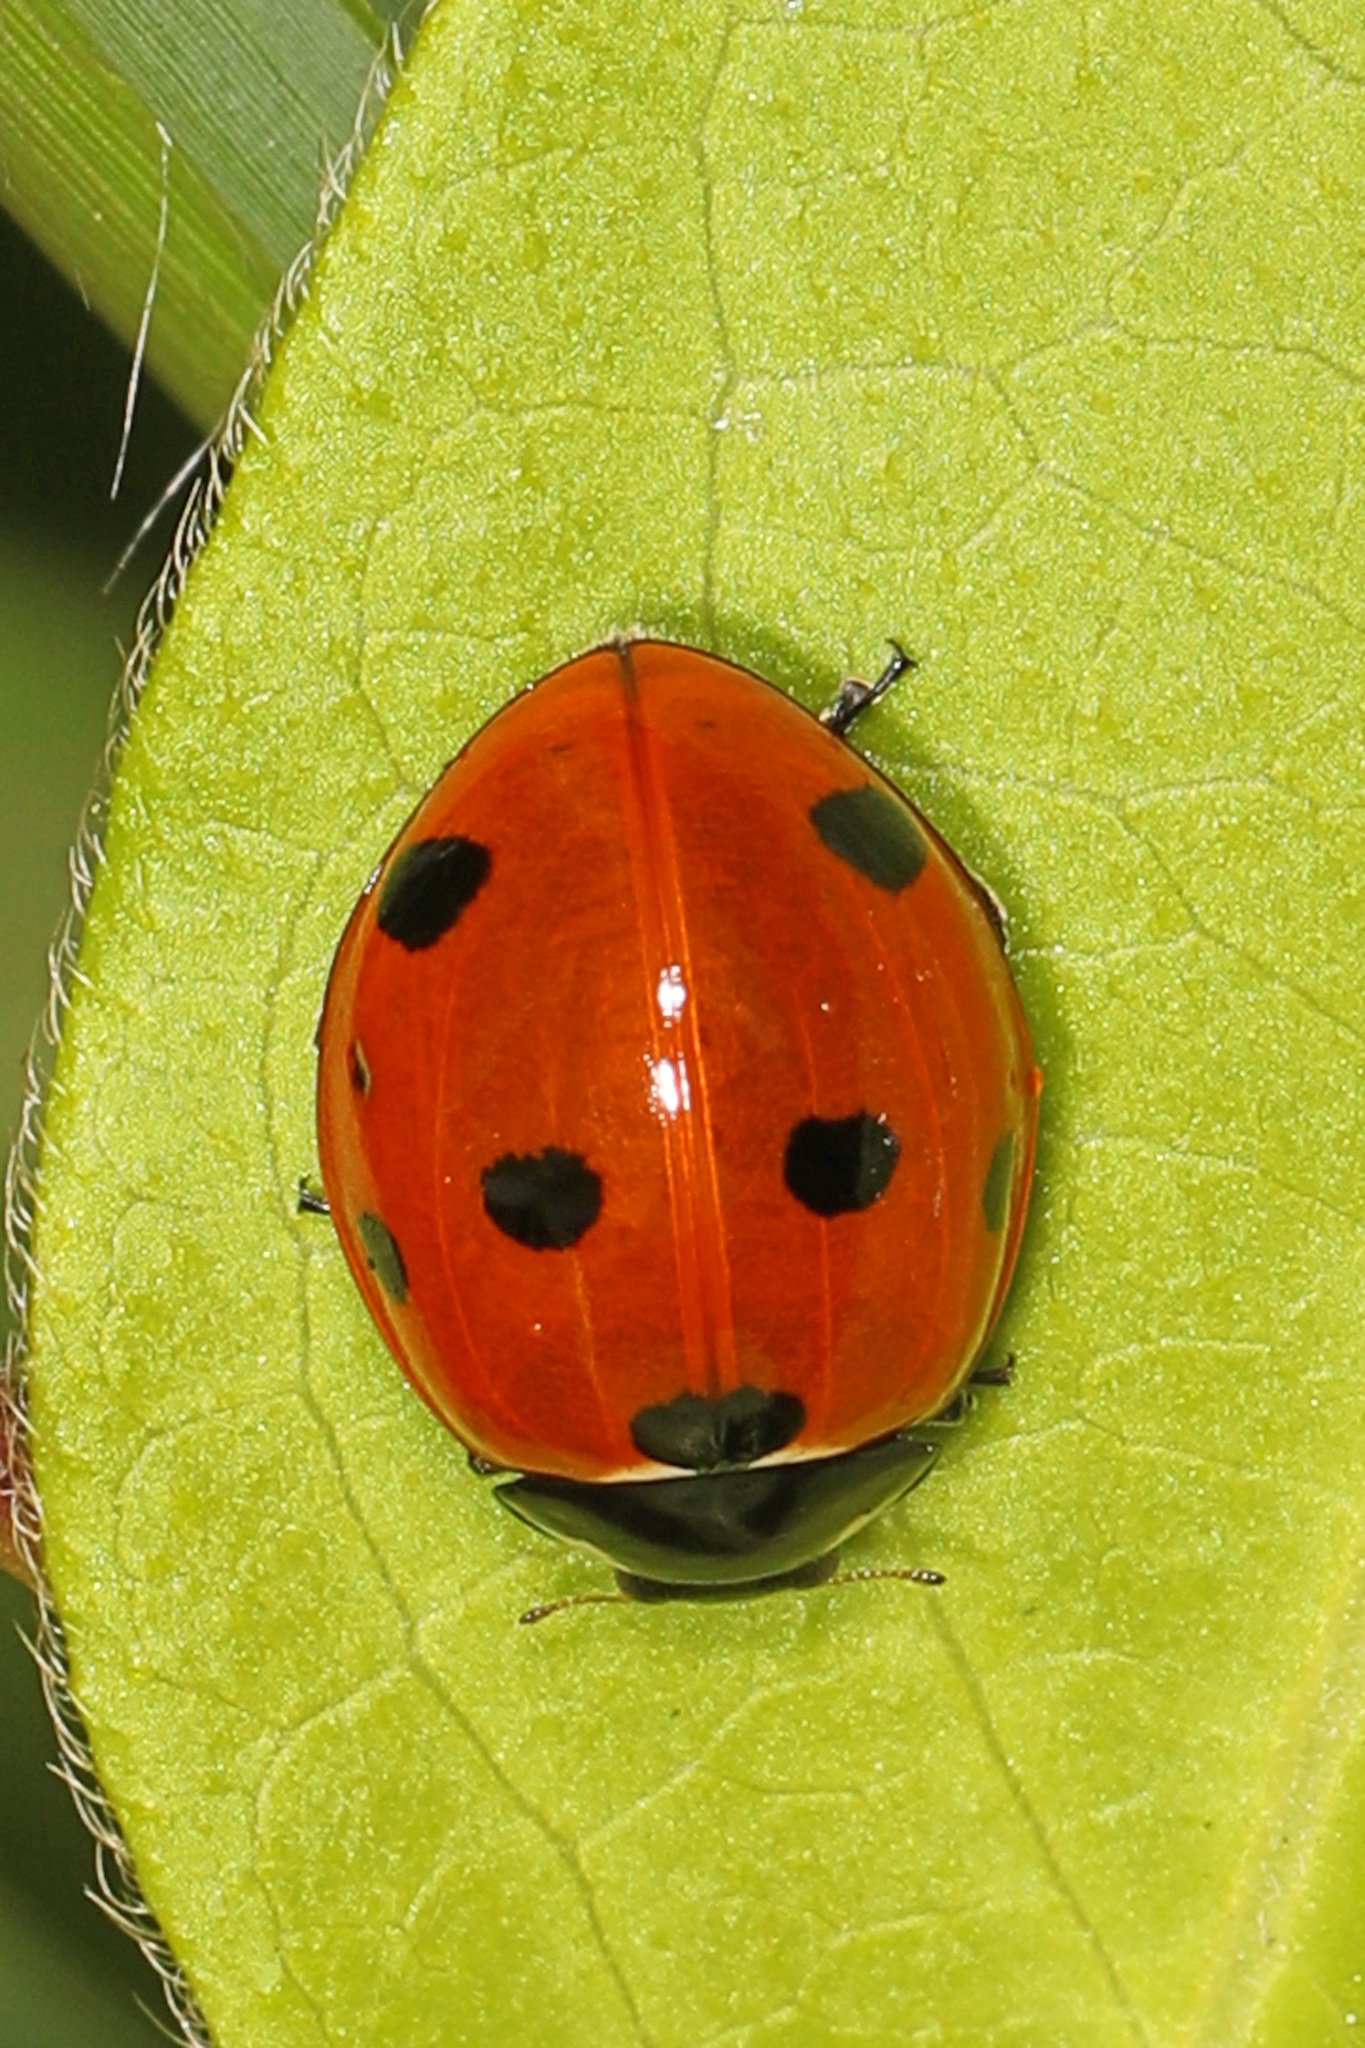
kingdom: Animalia
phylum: Arthropoda
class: Insecta
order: Coleoptera
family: Coccinellidae
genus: Coccinella
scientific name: Coccinella septempunctata
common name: Sevenspotted lady beetle
